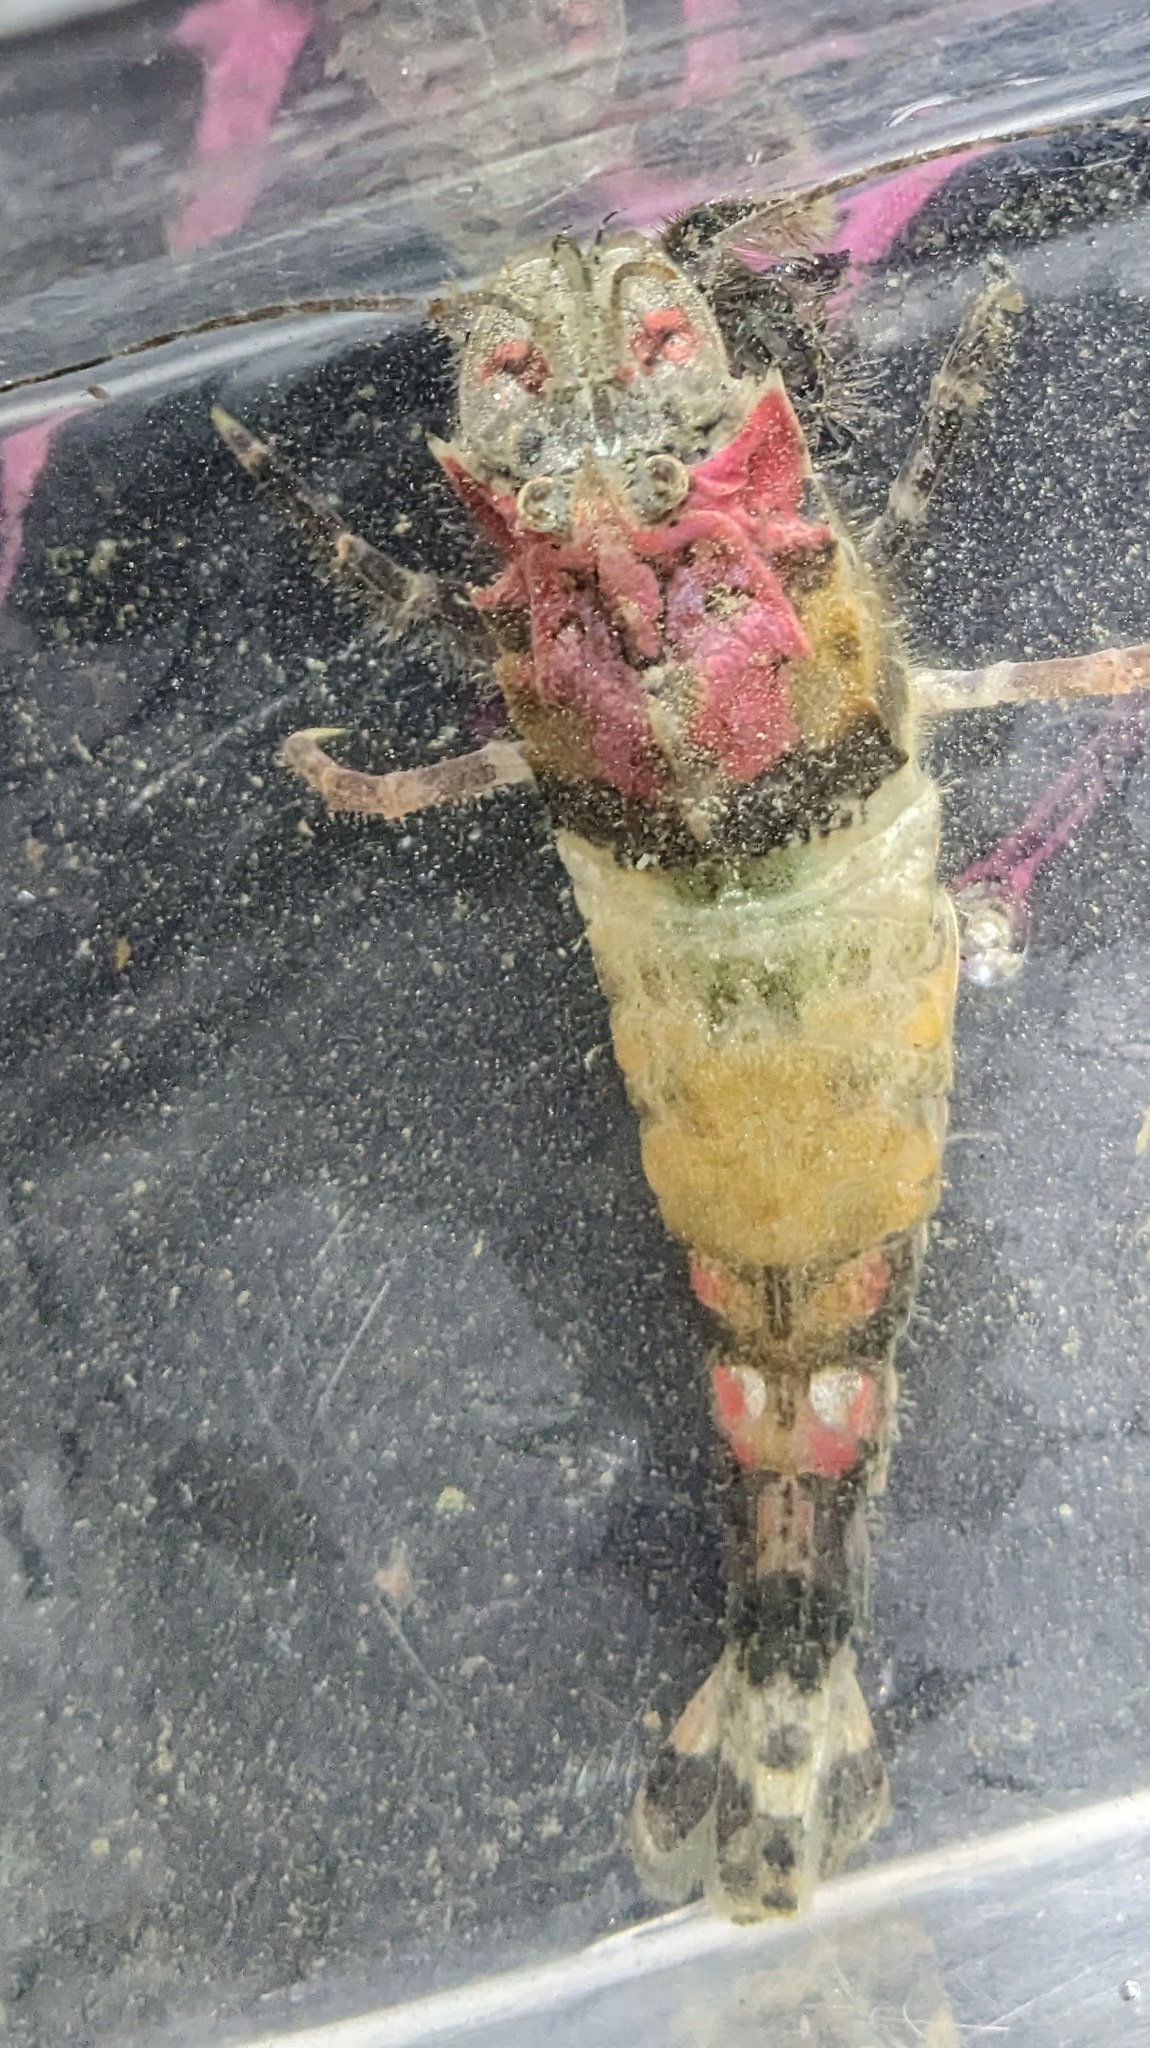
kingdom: Animalia
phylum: Arthropoda
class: Malacostraca
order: Decapoda
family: Crangonidae
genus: Sclerocrangon
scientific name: Sclerocrangon boreas
